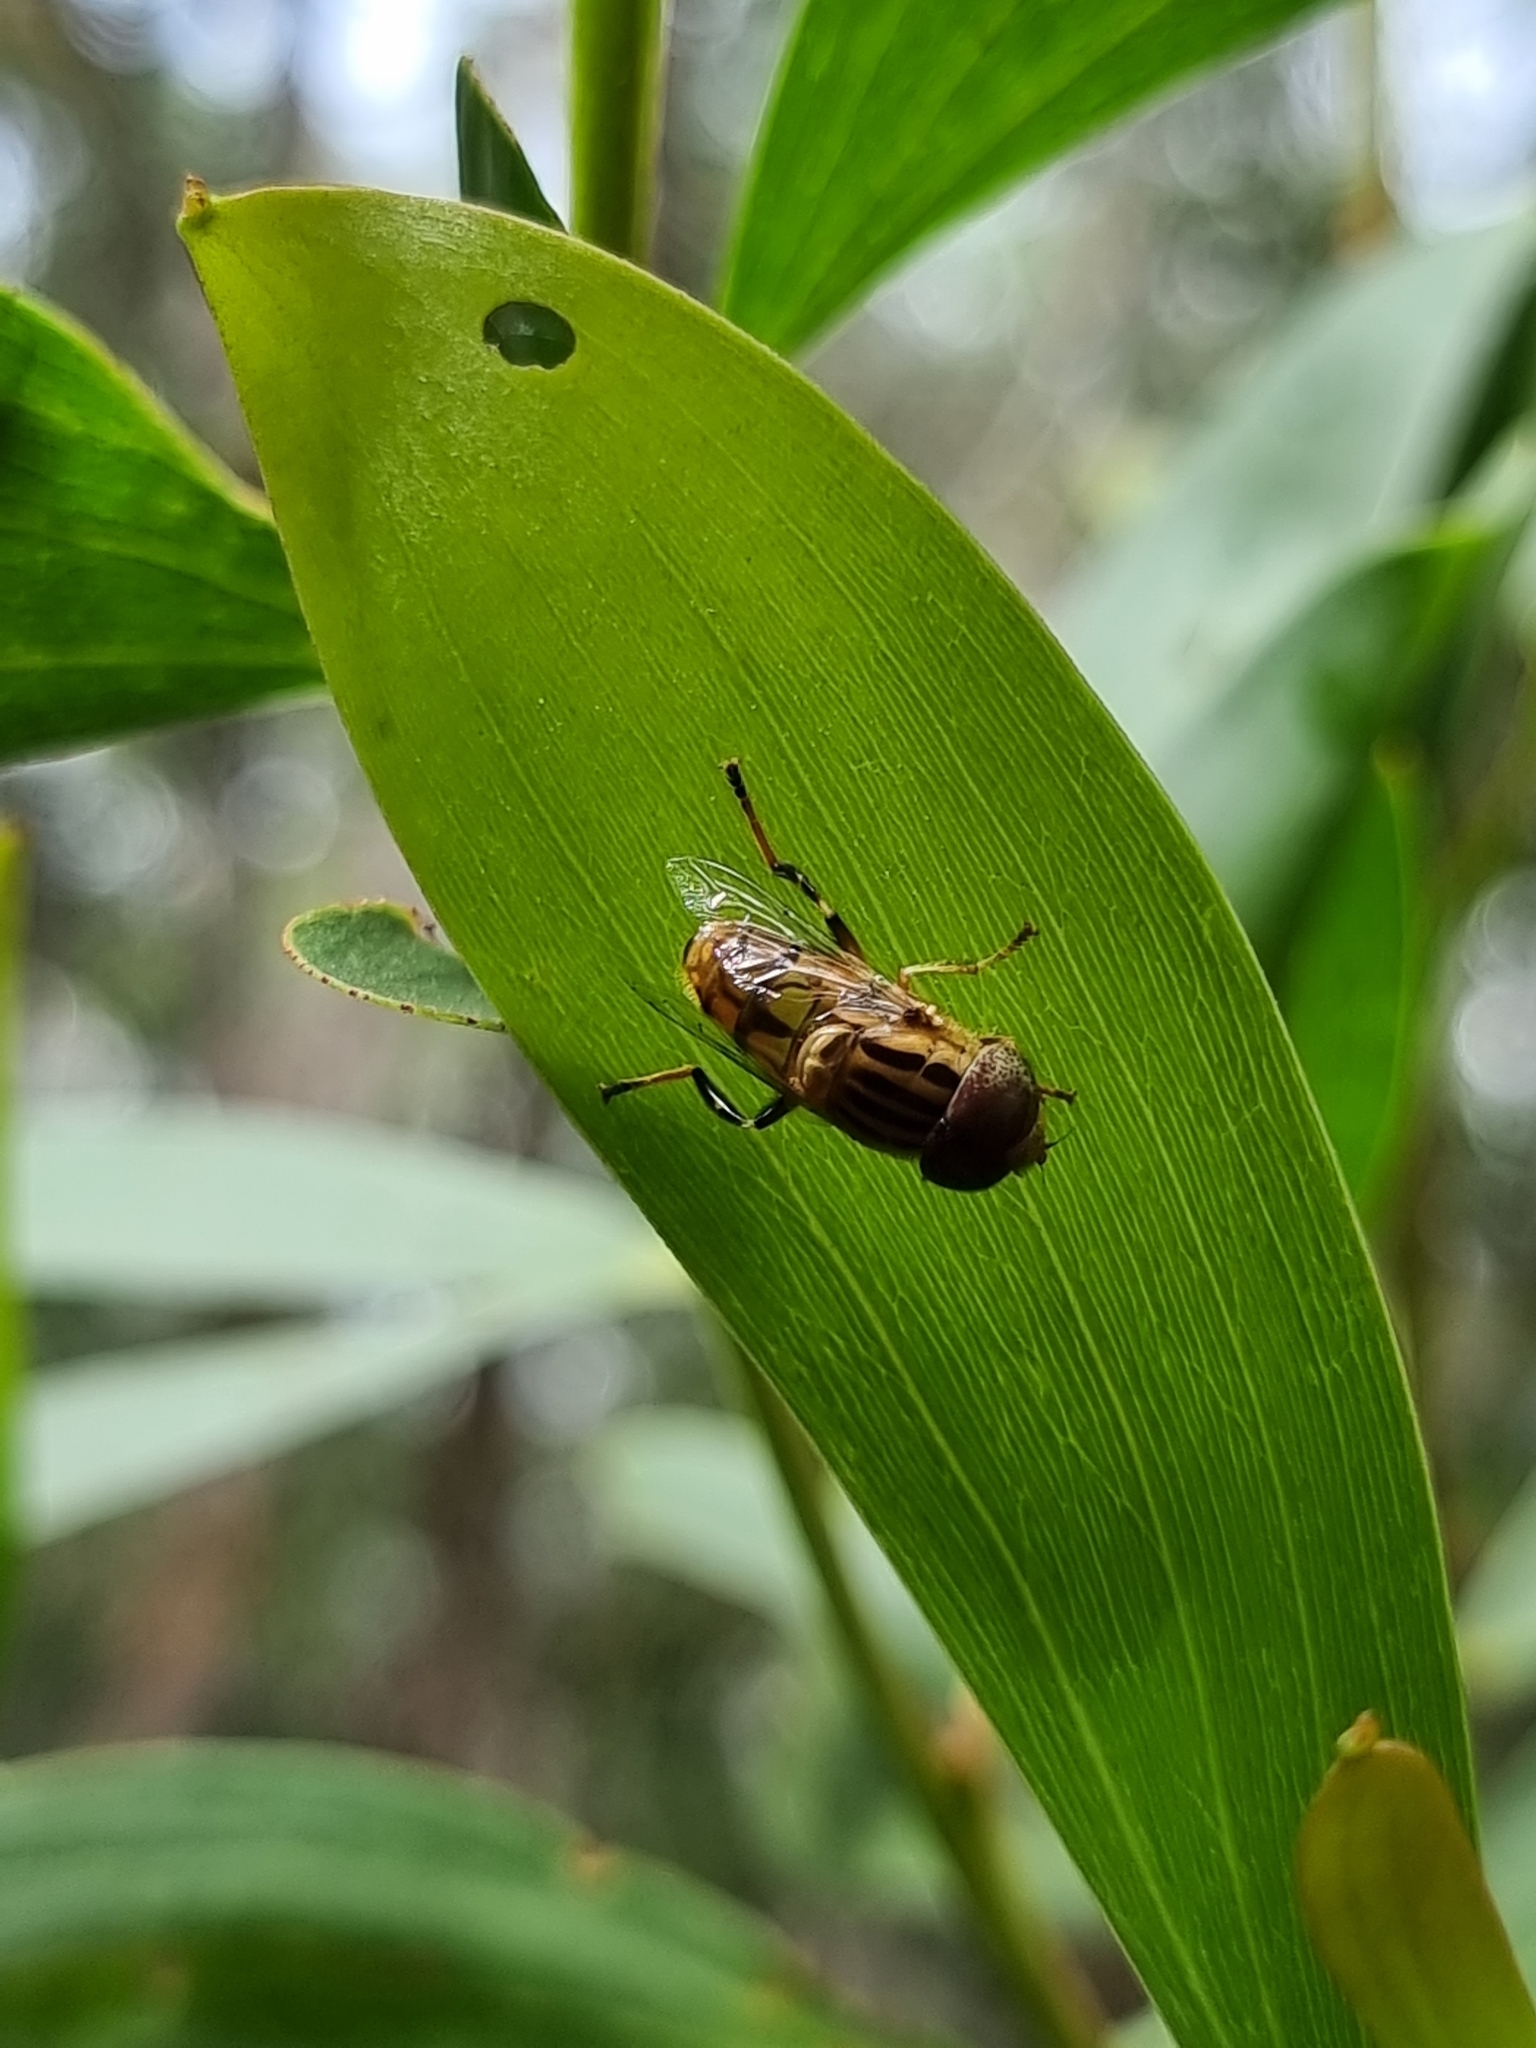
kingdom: Animalia
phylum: Arthropoda
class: Insecta
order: Diptera
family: Syrphidae
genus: Eristalinus
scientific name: Eristalinus punctulatus
